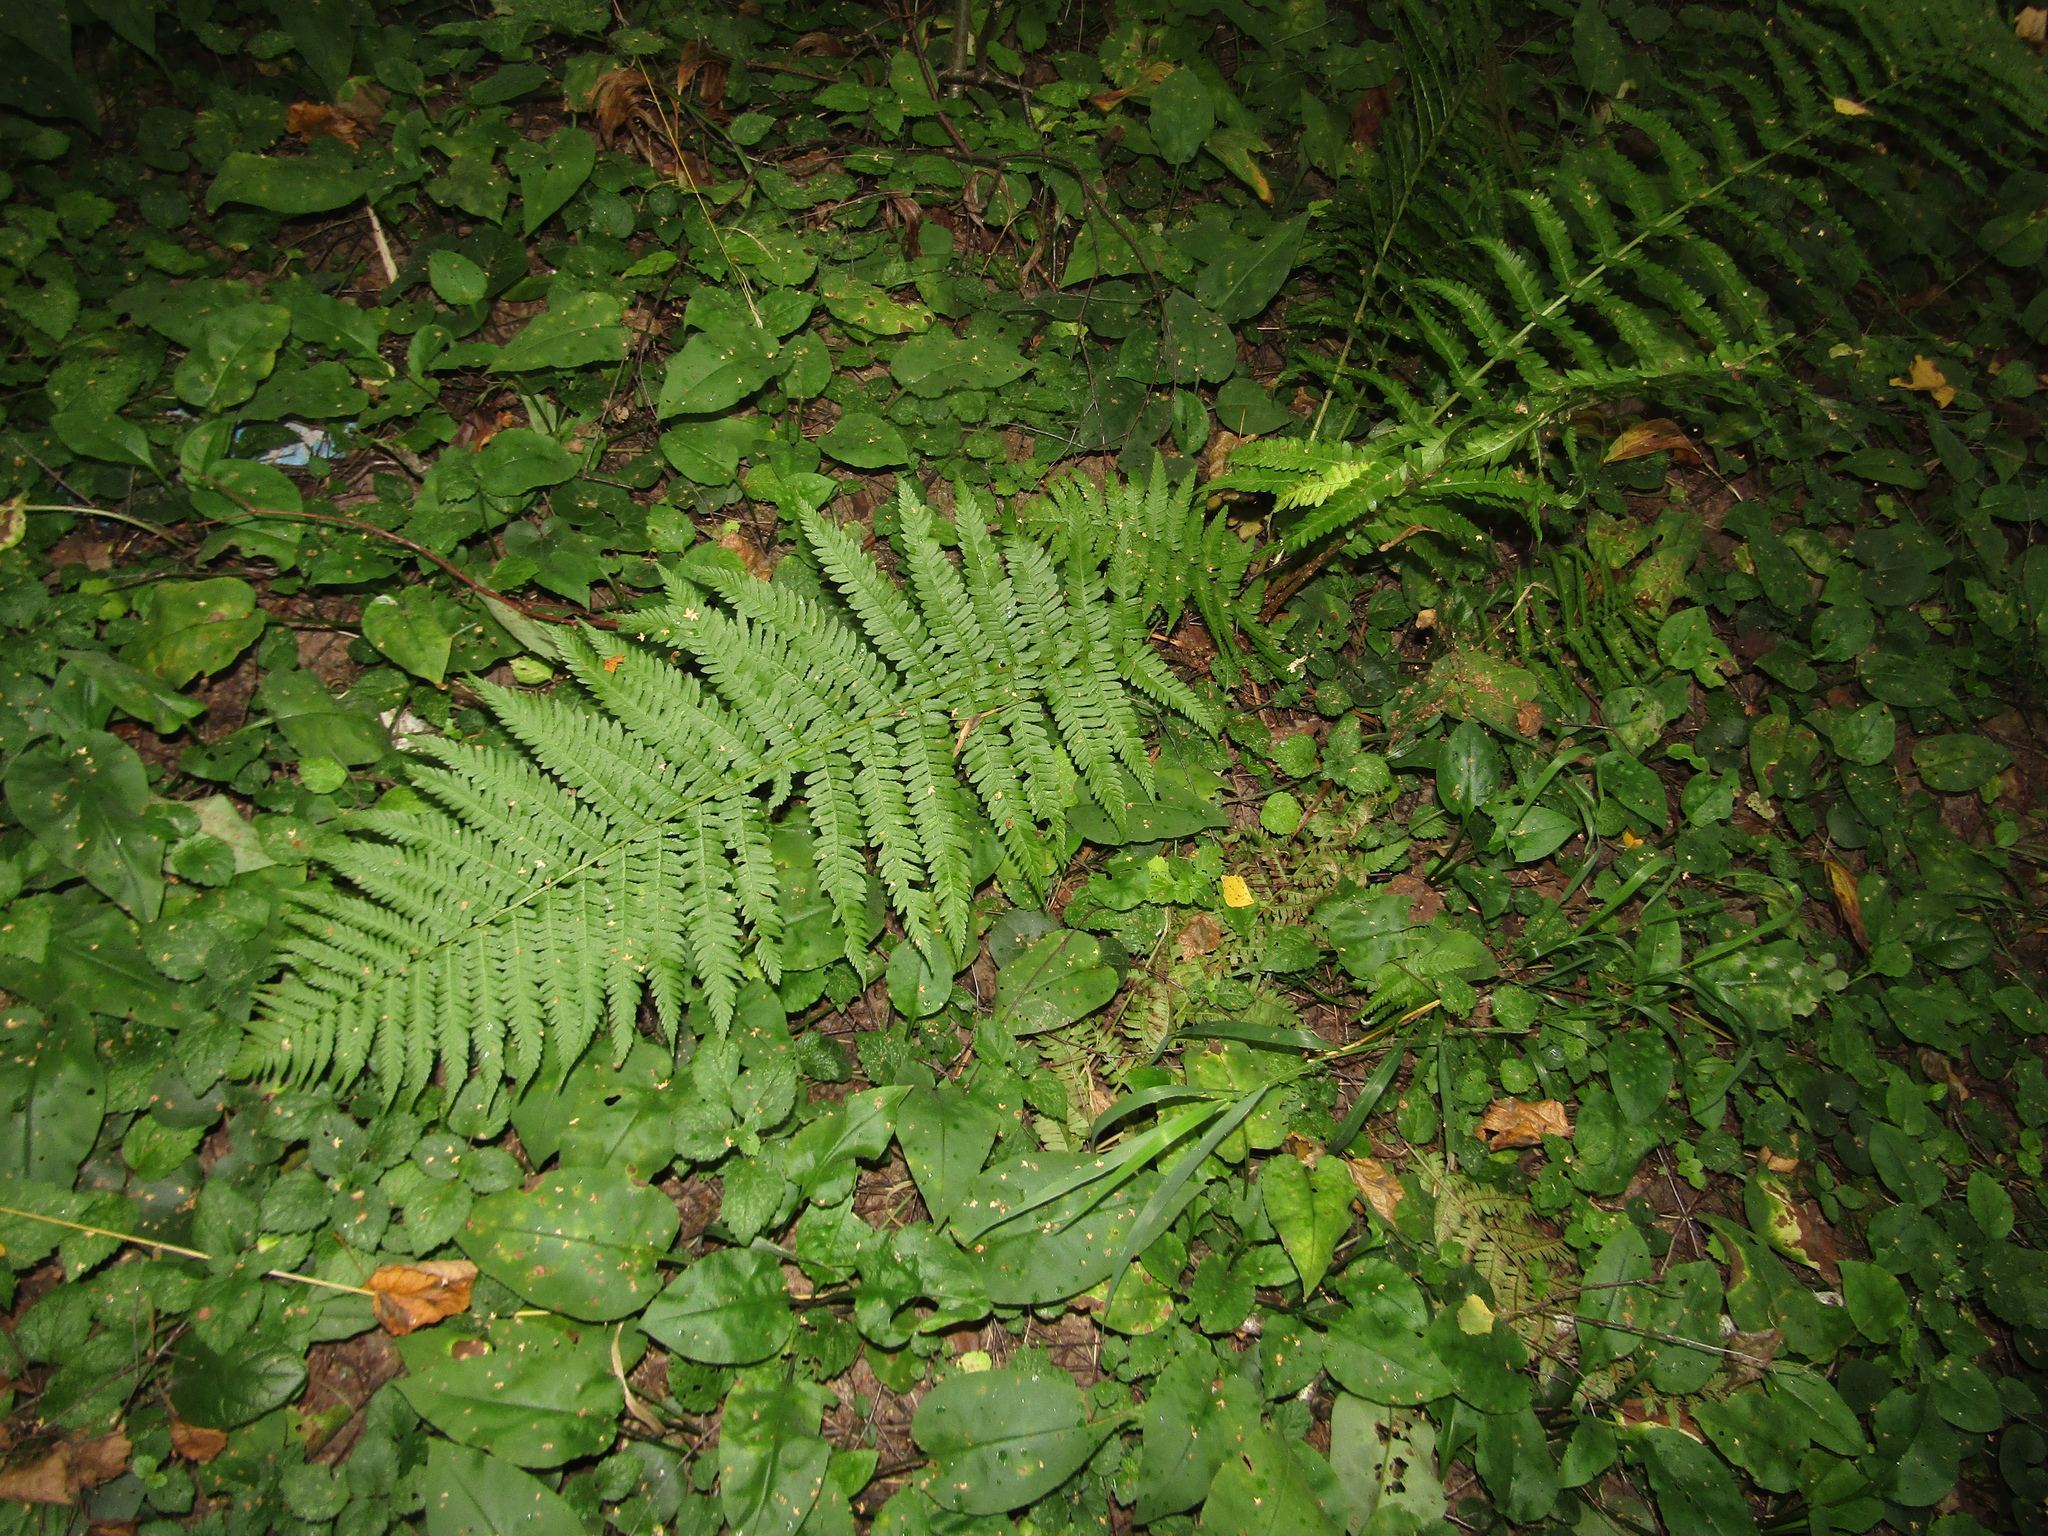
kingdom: Plantae
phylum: Tracheophyta
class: Polypodiopsida
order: Polypodiales
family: Dryopteridaceae
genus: Dryopteris
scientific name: Dryopteris filix-mas
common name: Male fern
